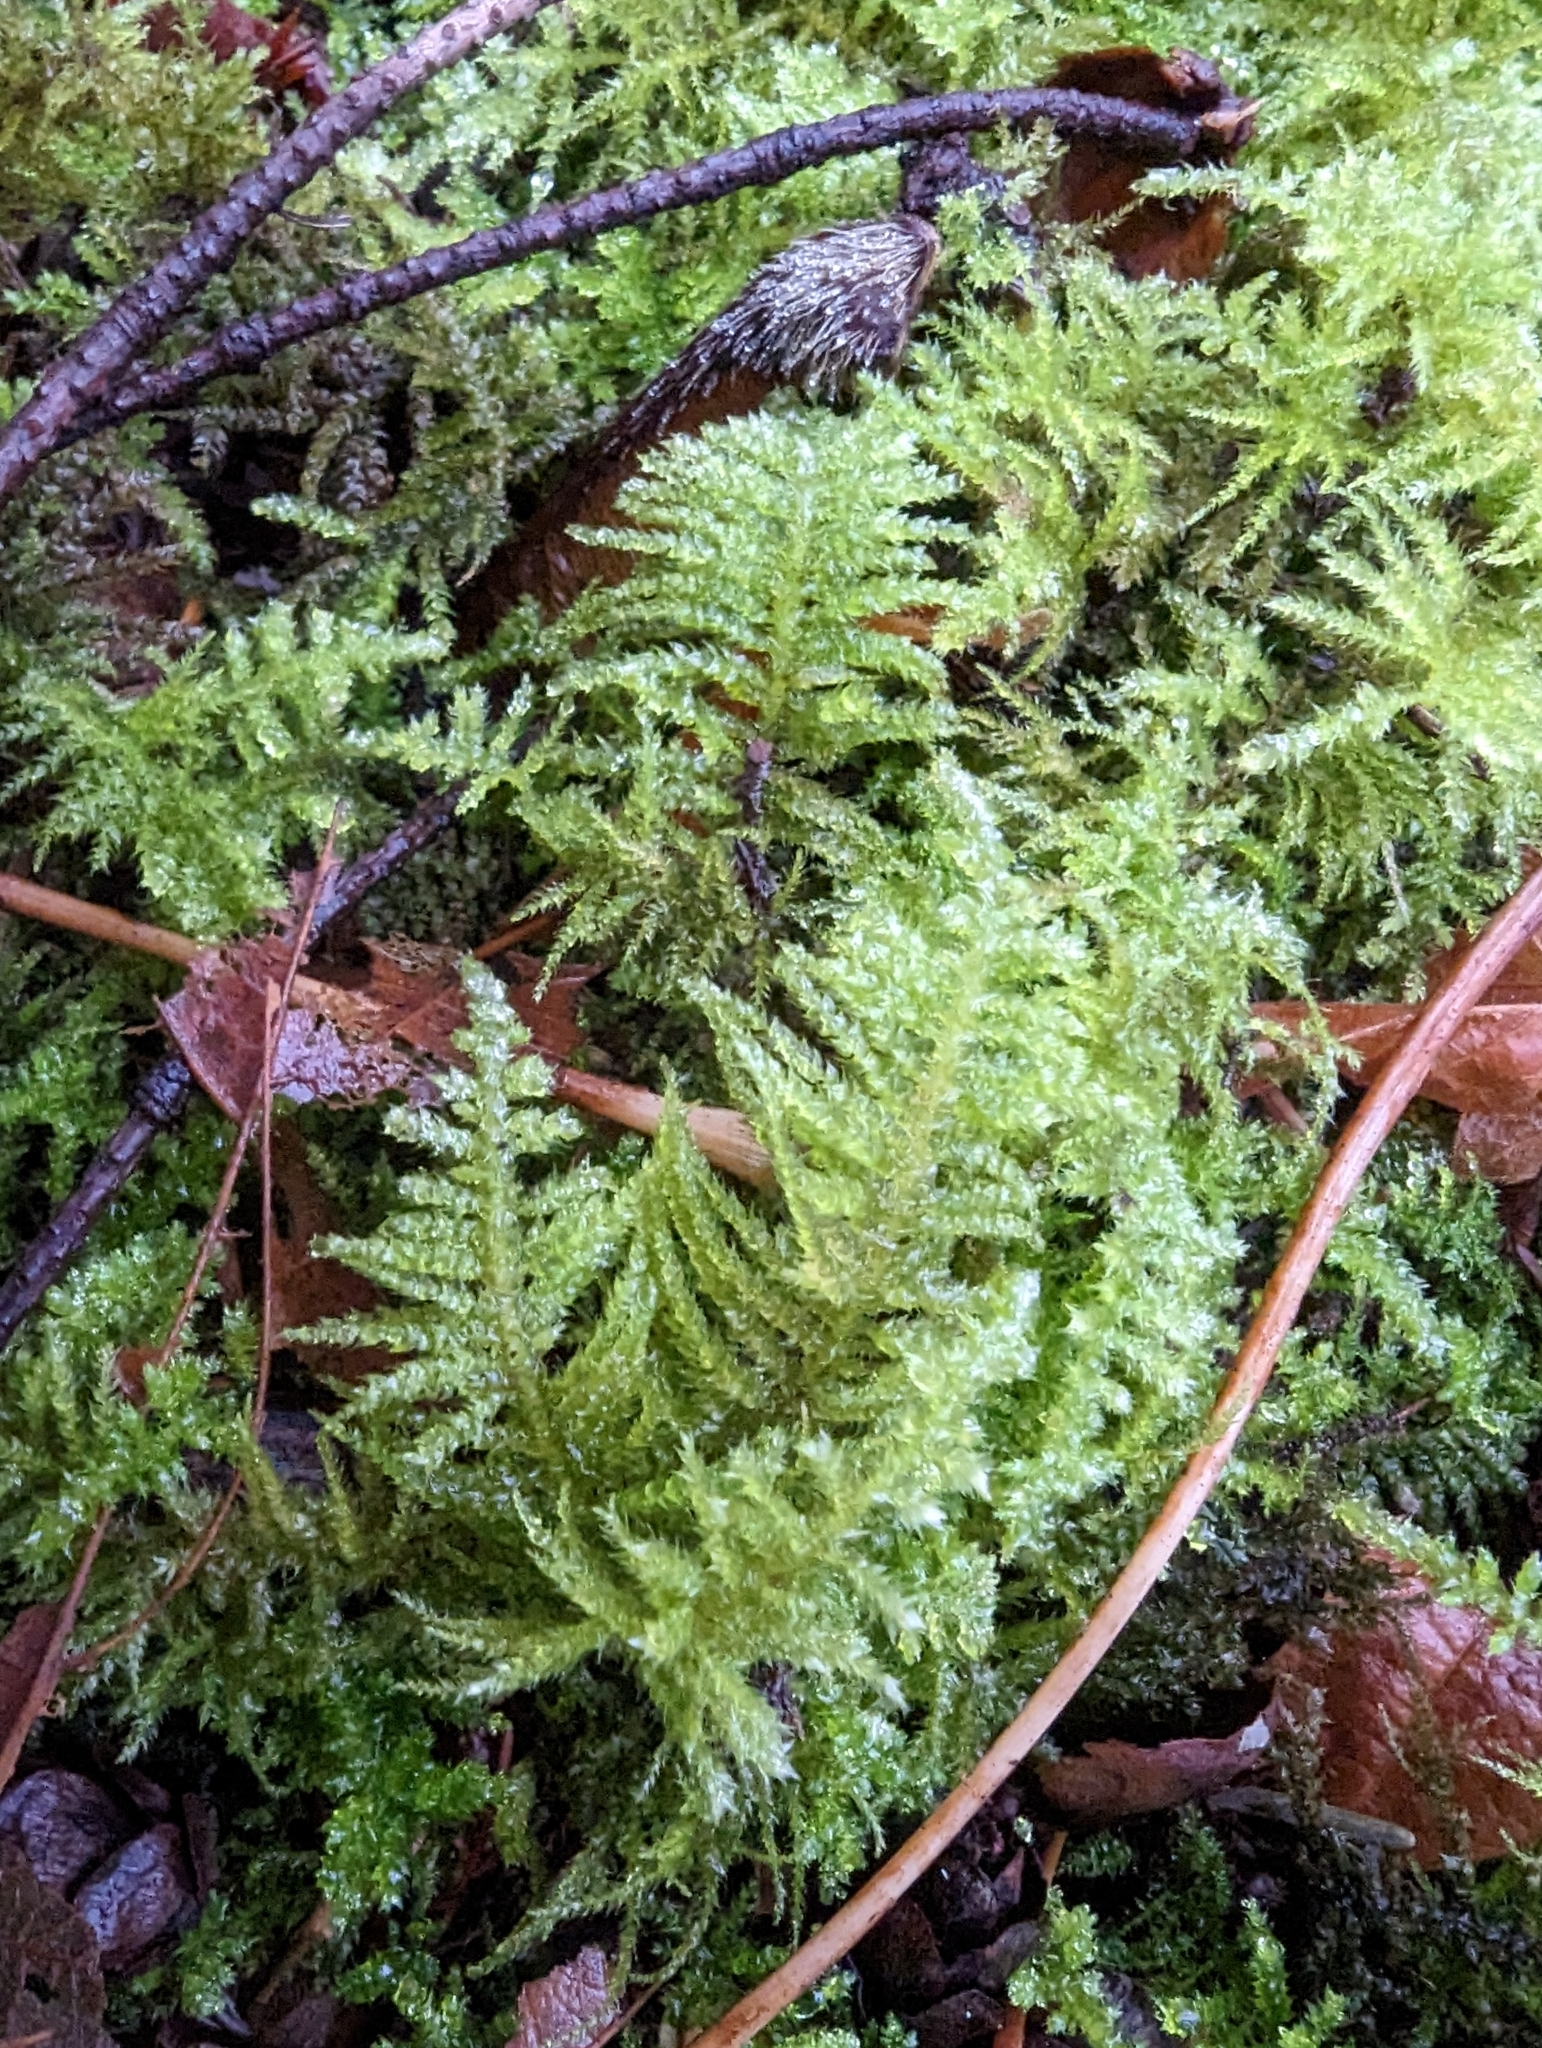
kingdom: Plantae
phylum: Bryophyta
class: Bryopsida
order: Hypnales
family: Brachytheciaceae
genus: Kindbergia
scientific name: Kindbergia oregana
